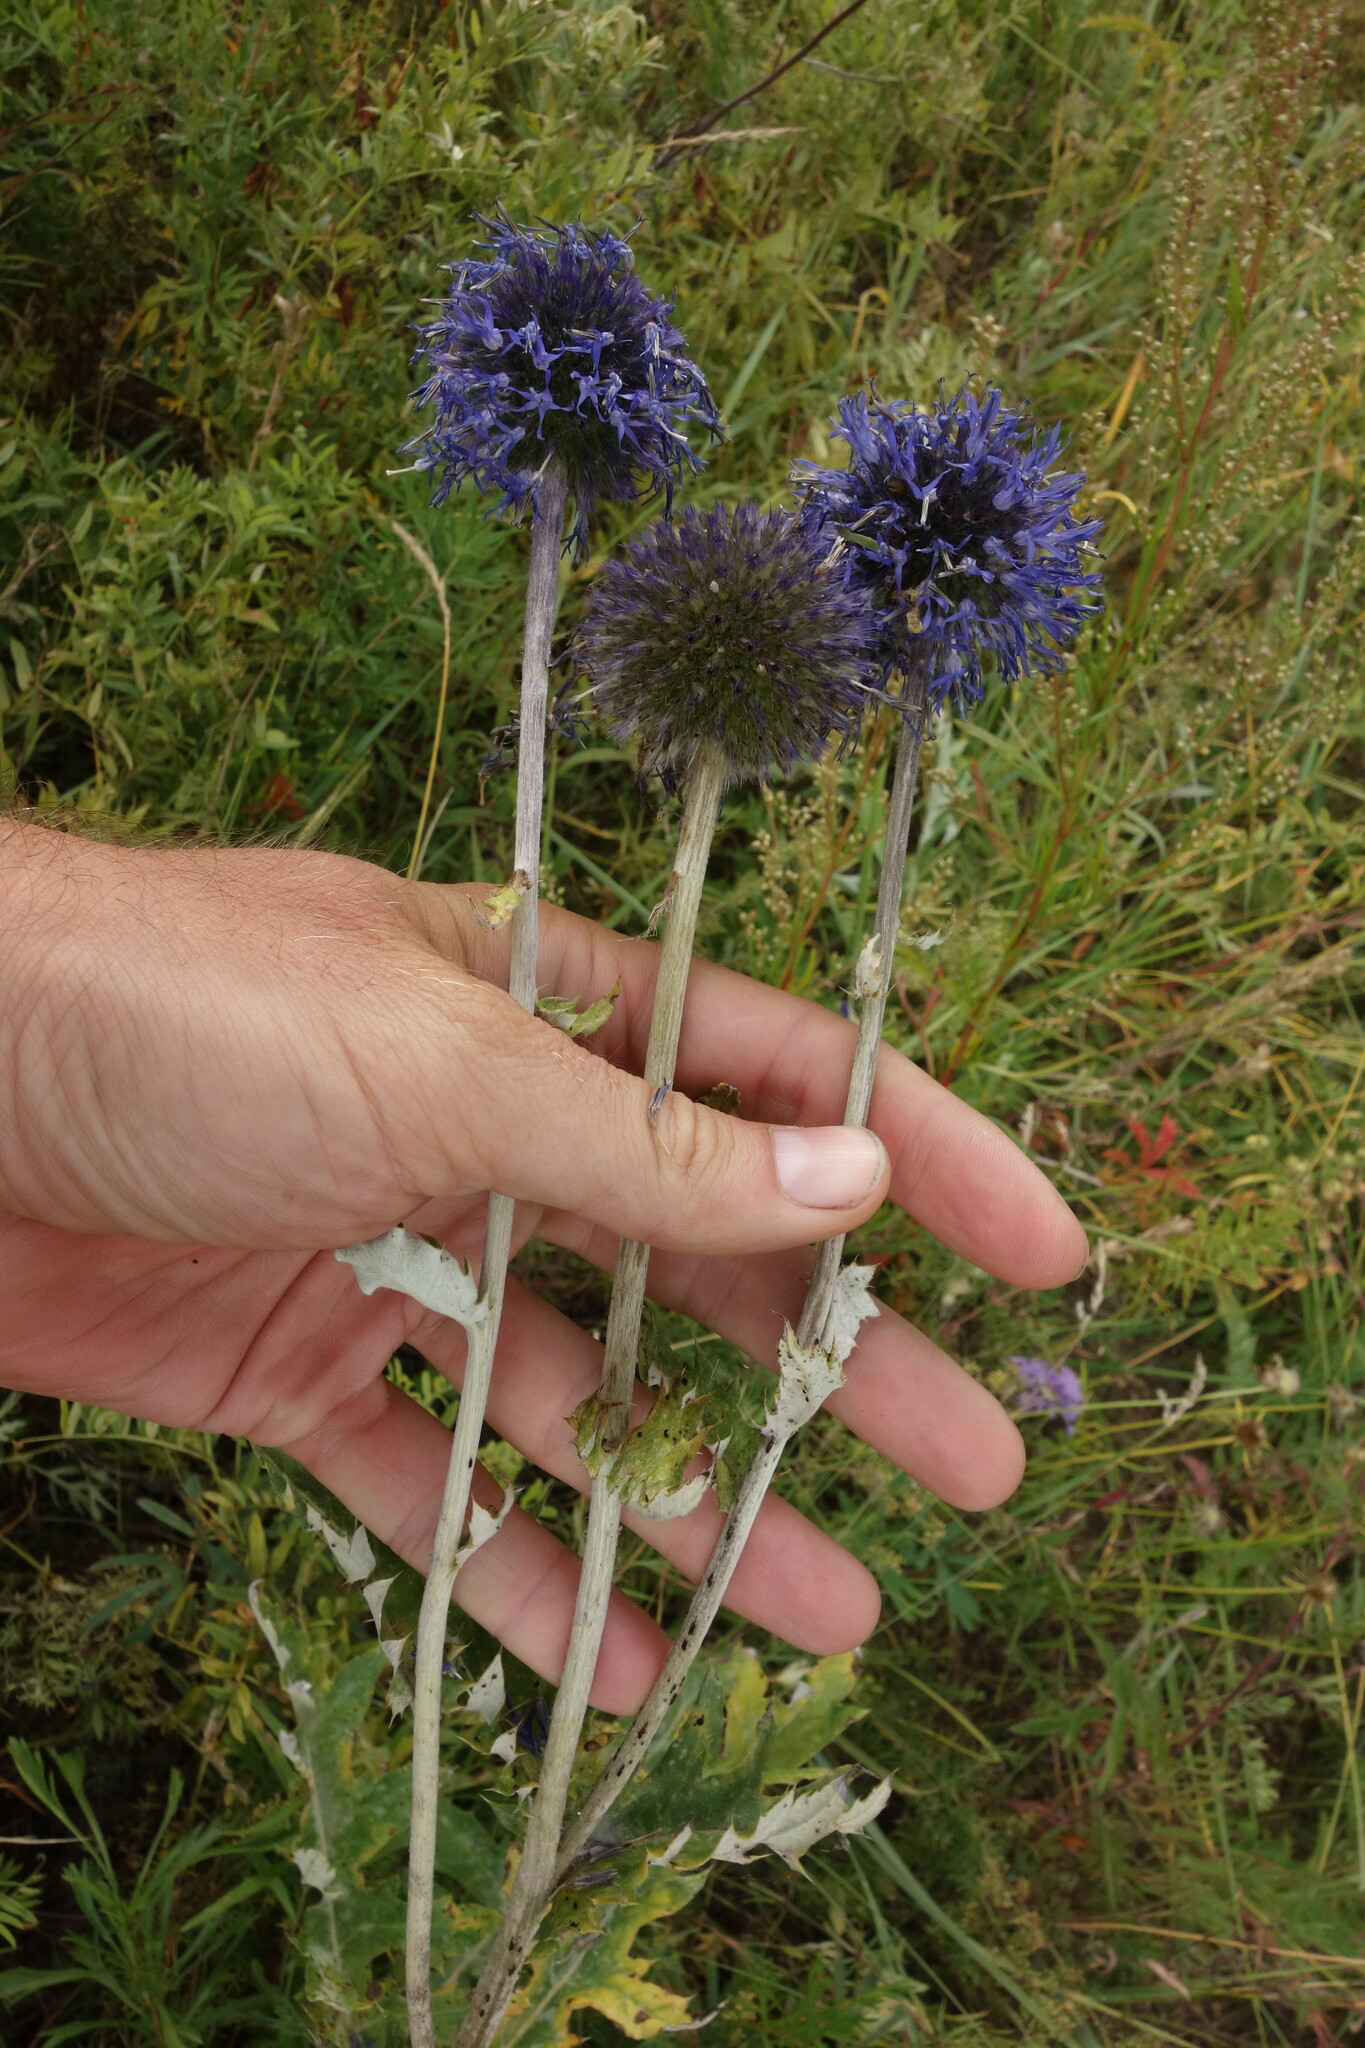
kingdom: Plantae
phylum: Tracheophyta
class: Magnoliopsida
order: Asterales
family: Asteraceae
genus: Echinops
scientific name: Echinops davuricus
